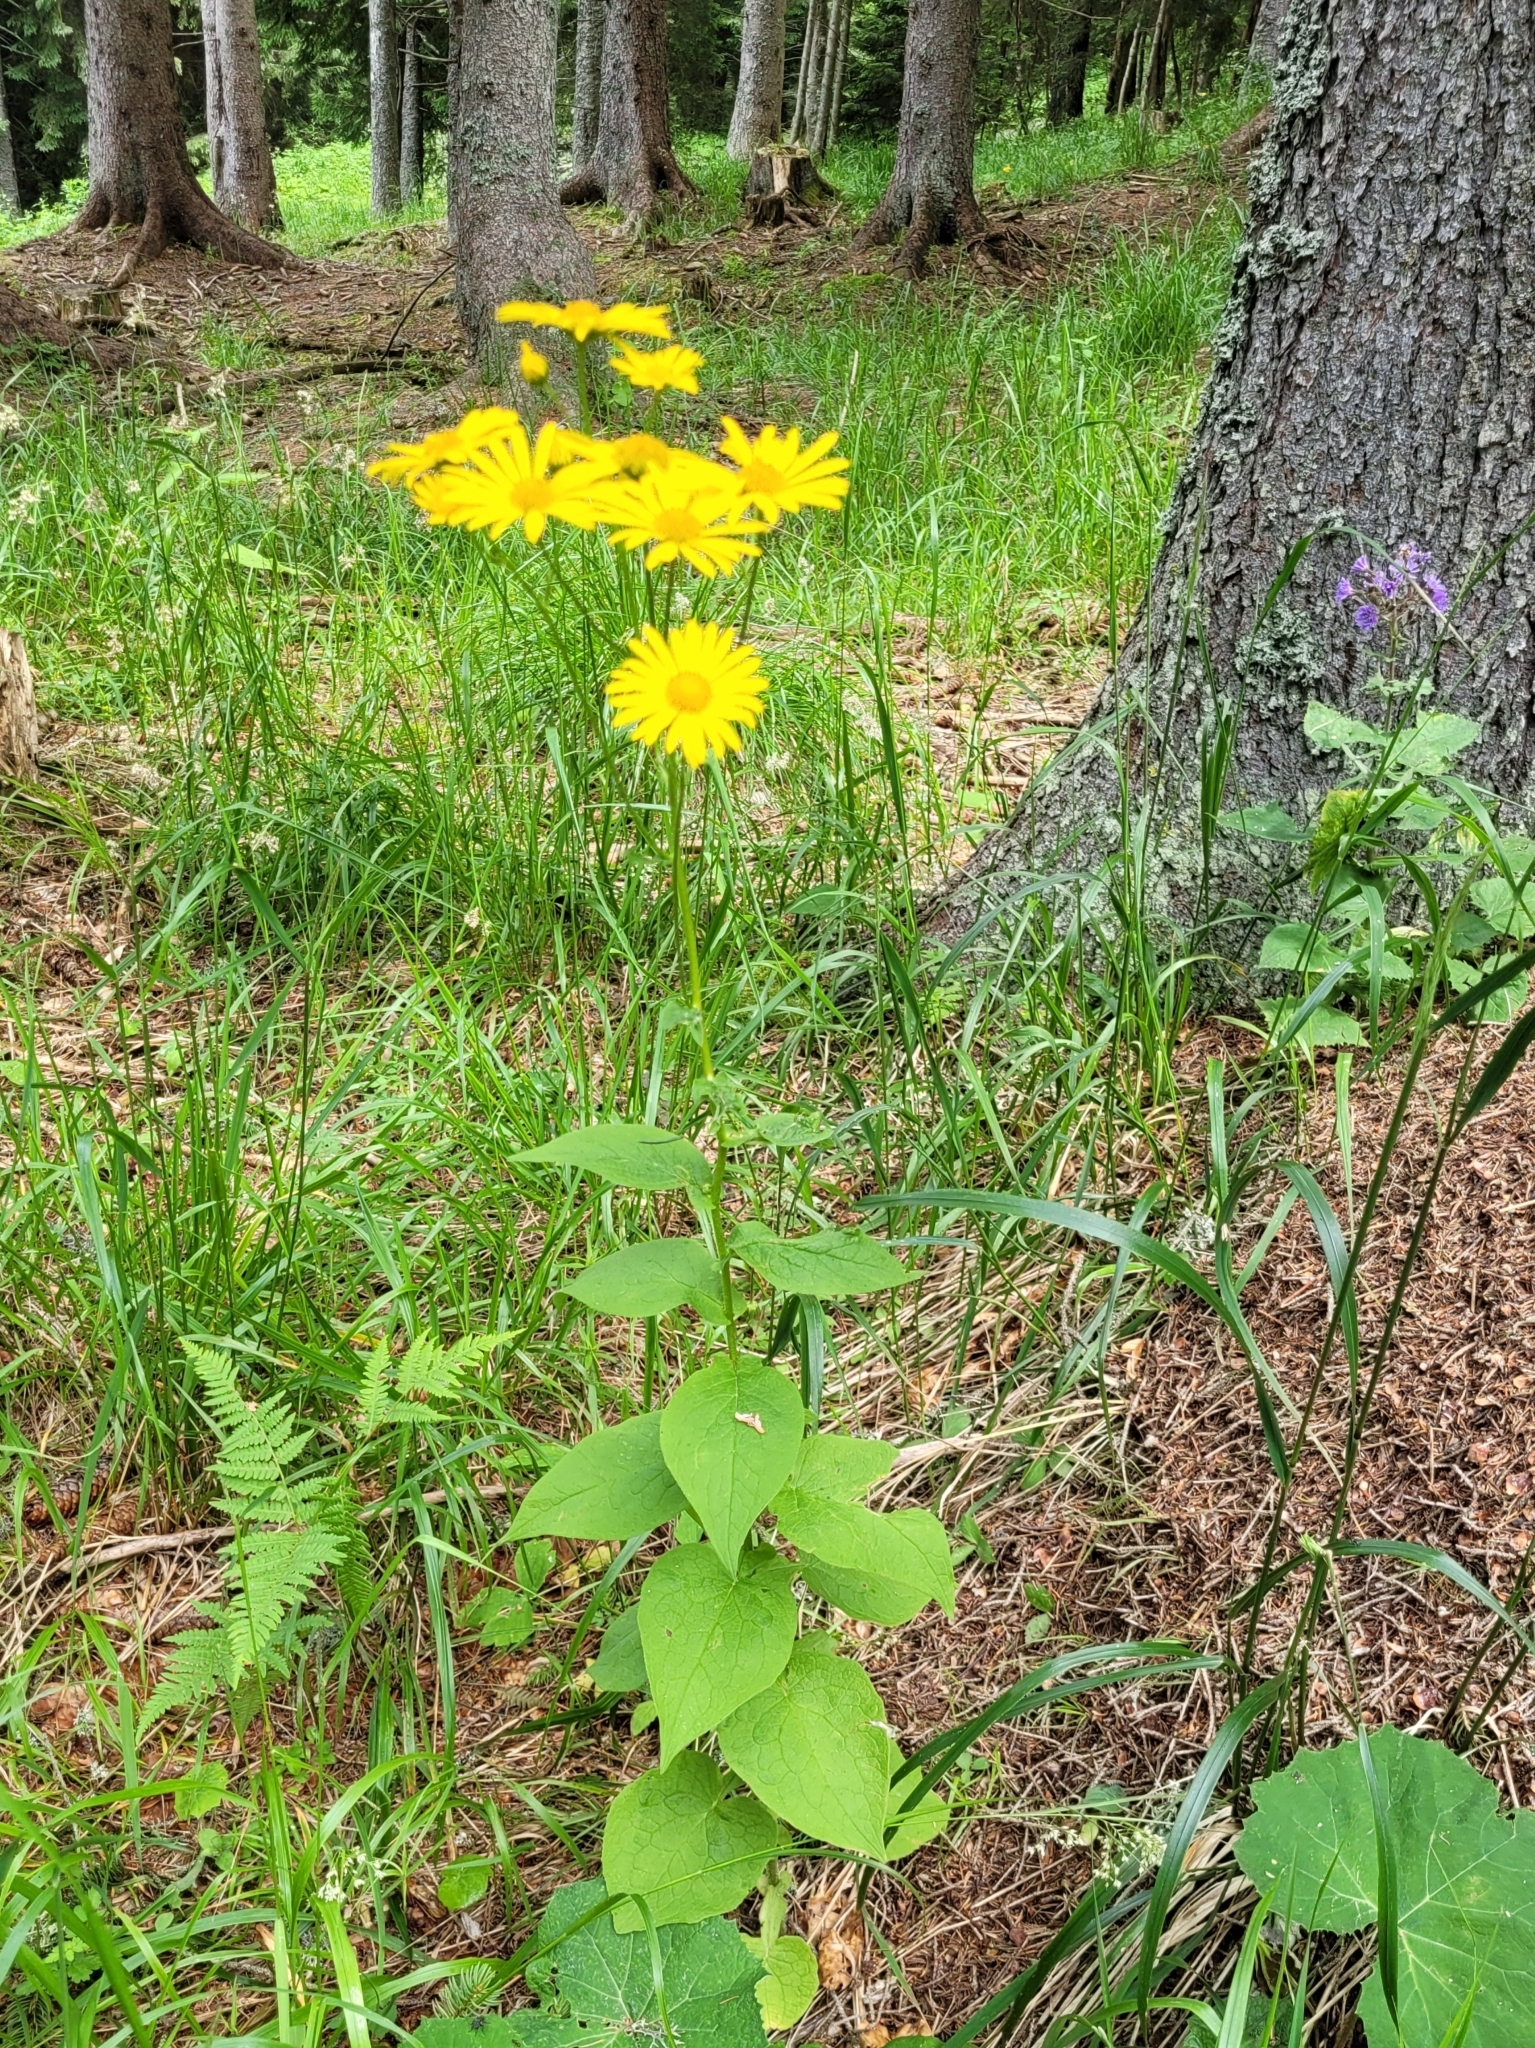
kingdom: Plantae
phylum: Tracheophyta
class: Magnoliopsida
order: Asterales
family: Asteraceae
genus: Doronicum
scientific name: Doronicum austriacum
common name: Austrian leopard's-bane
